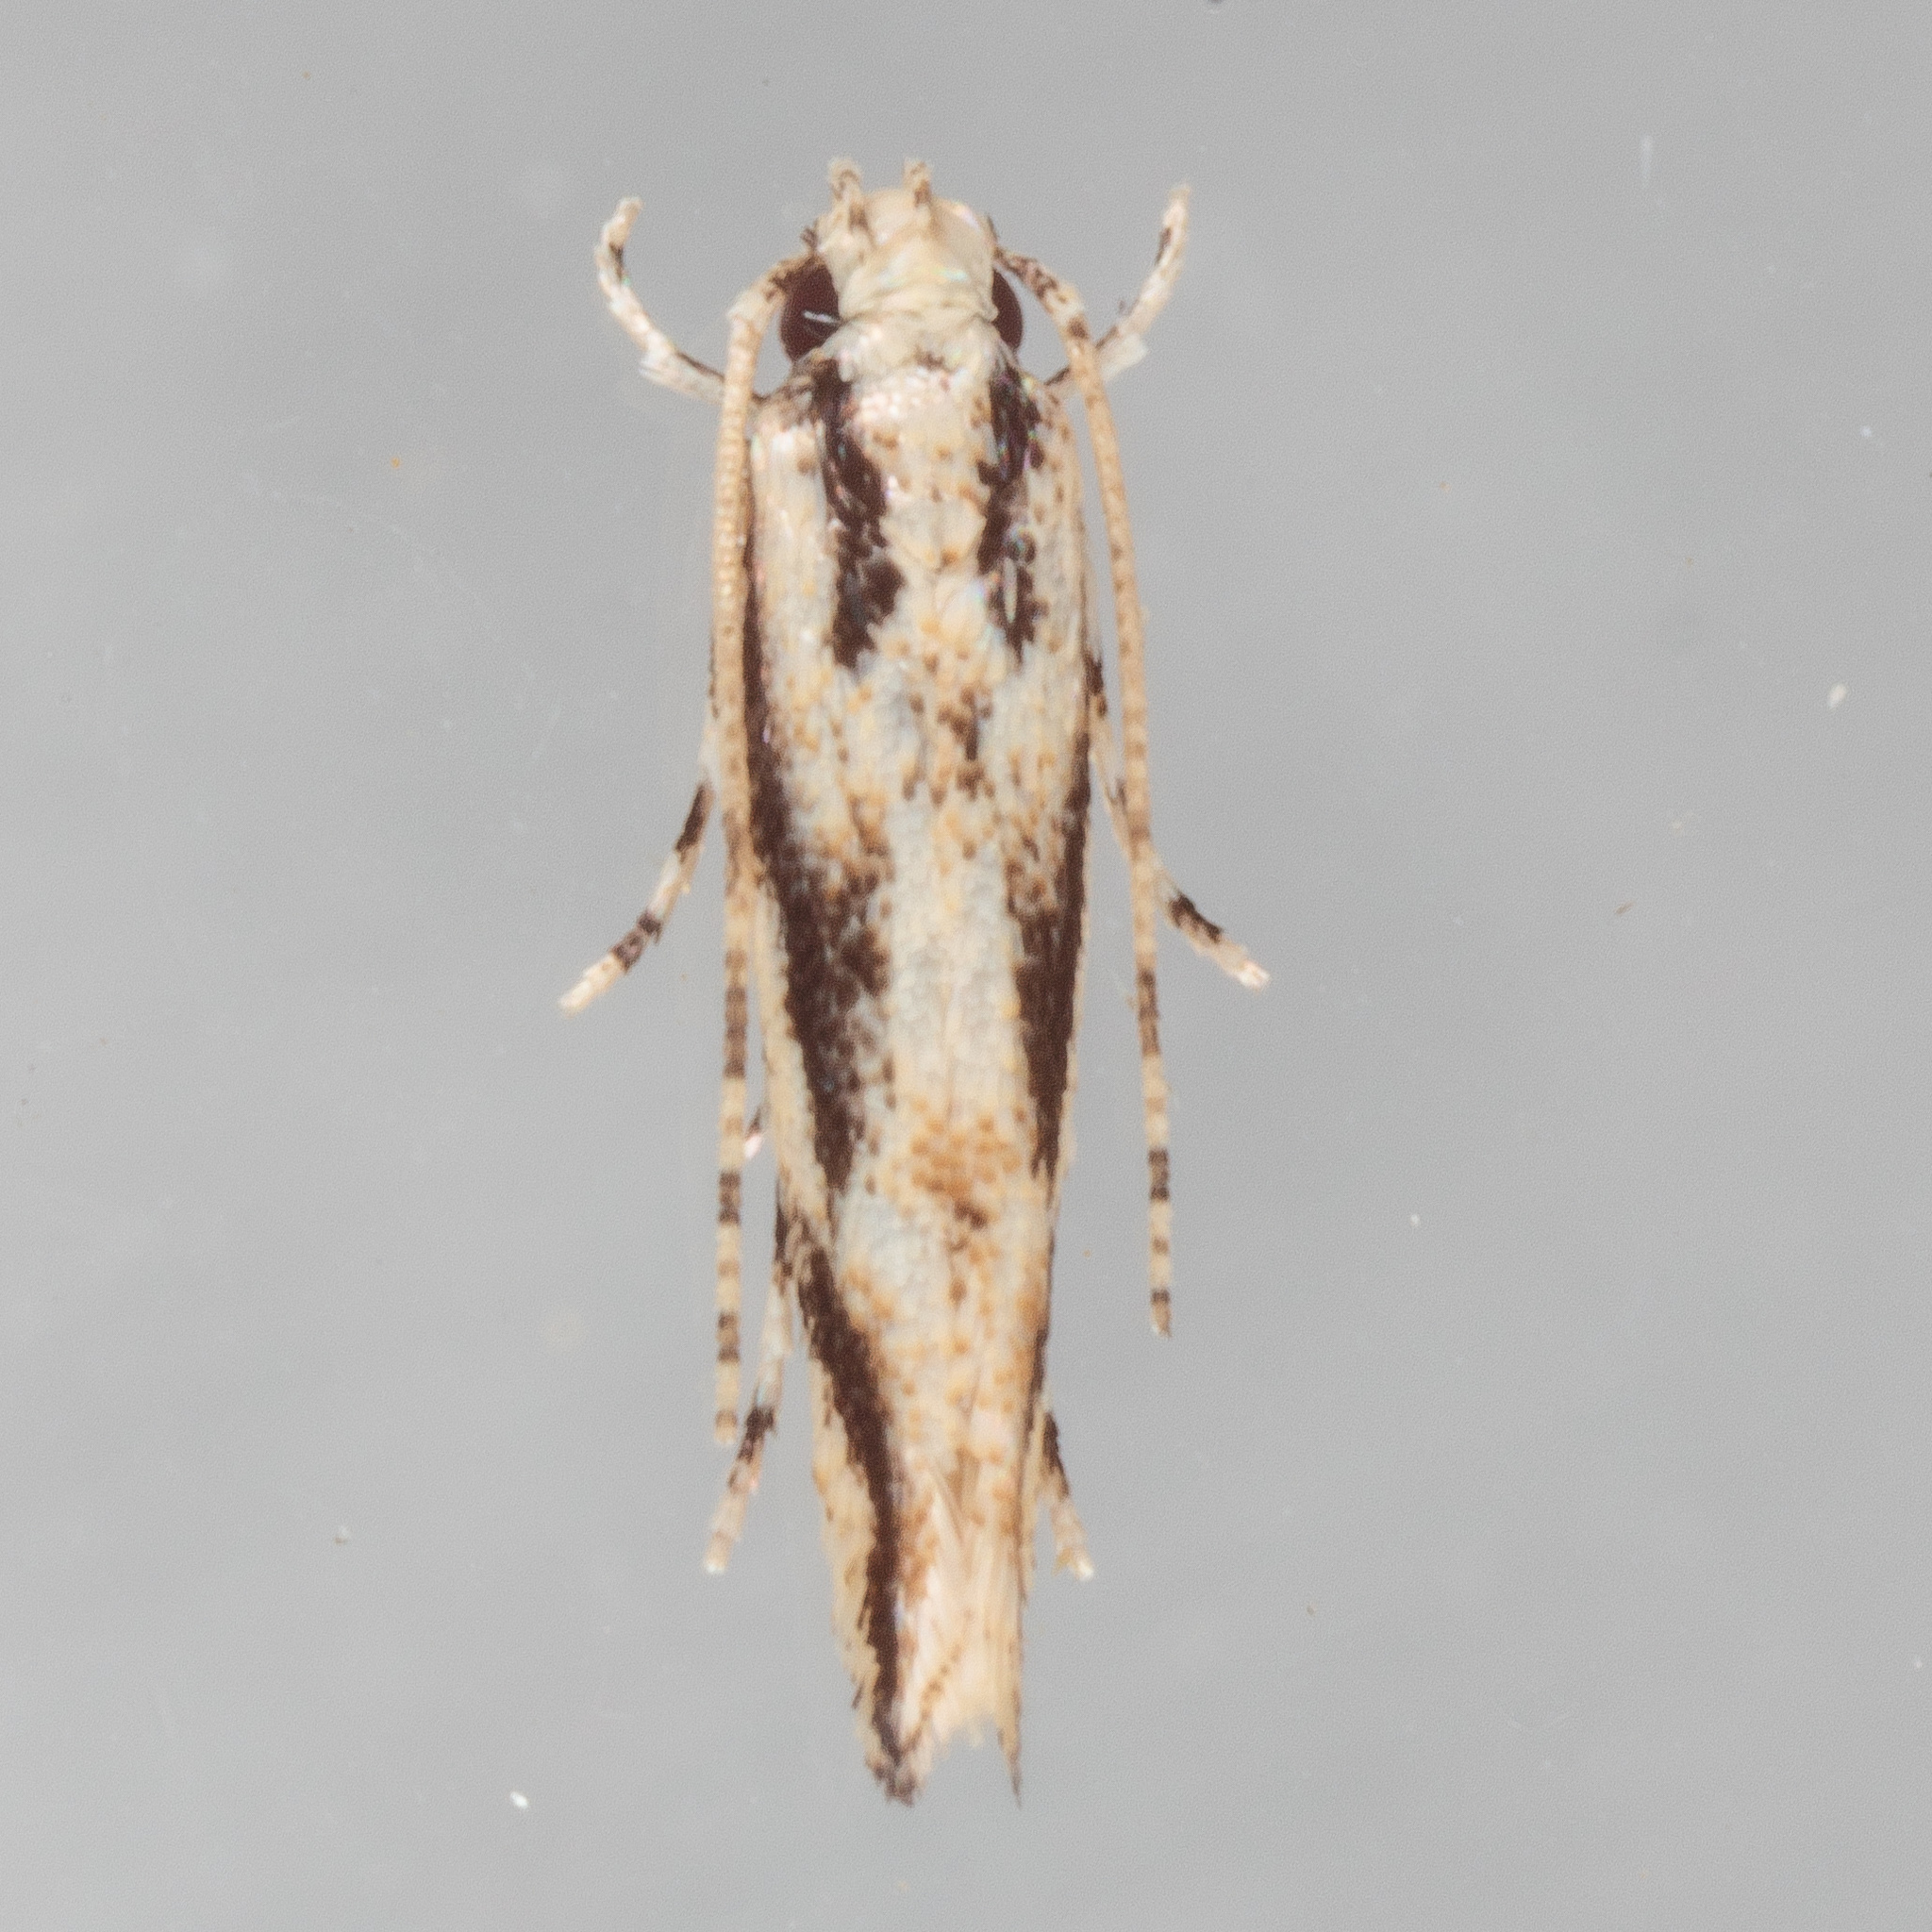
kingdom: Animalia
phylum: Arthropoda
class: Insecta
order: Lepidoptera
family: Cosmopterigidae
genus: Melanocinclis
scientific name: Melanocinclis lineigera
